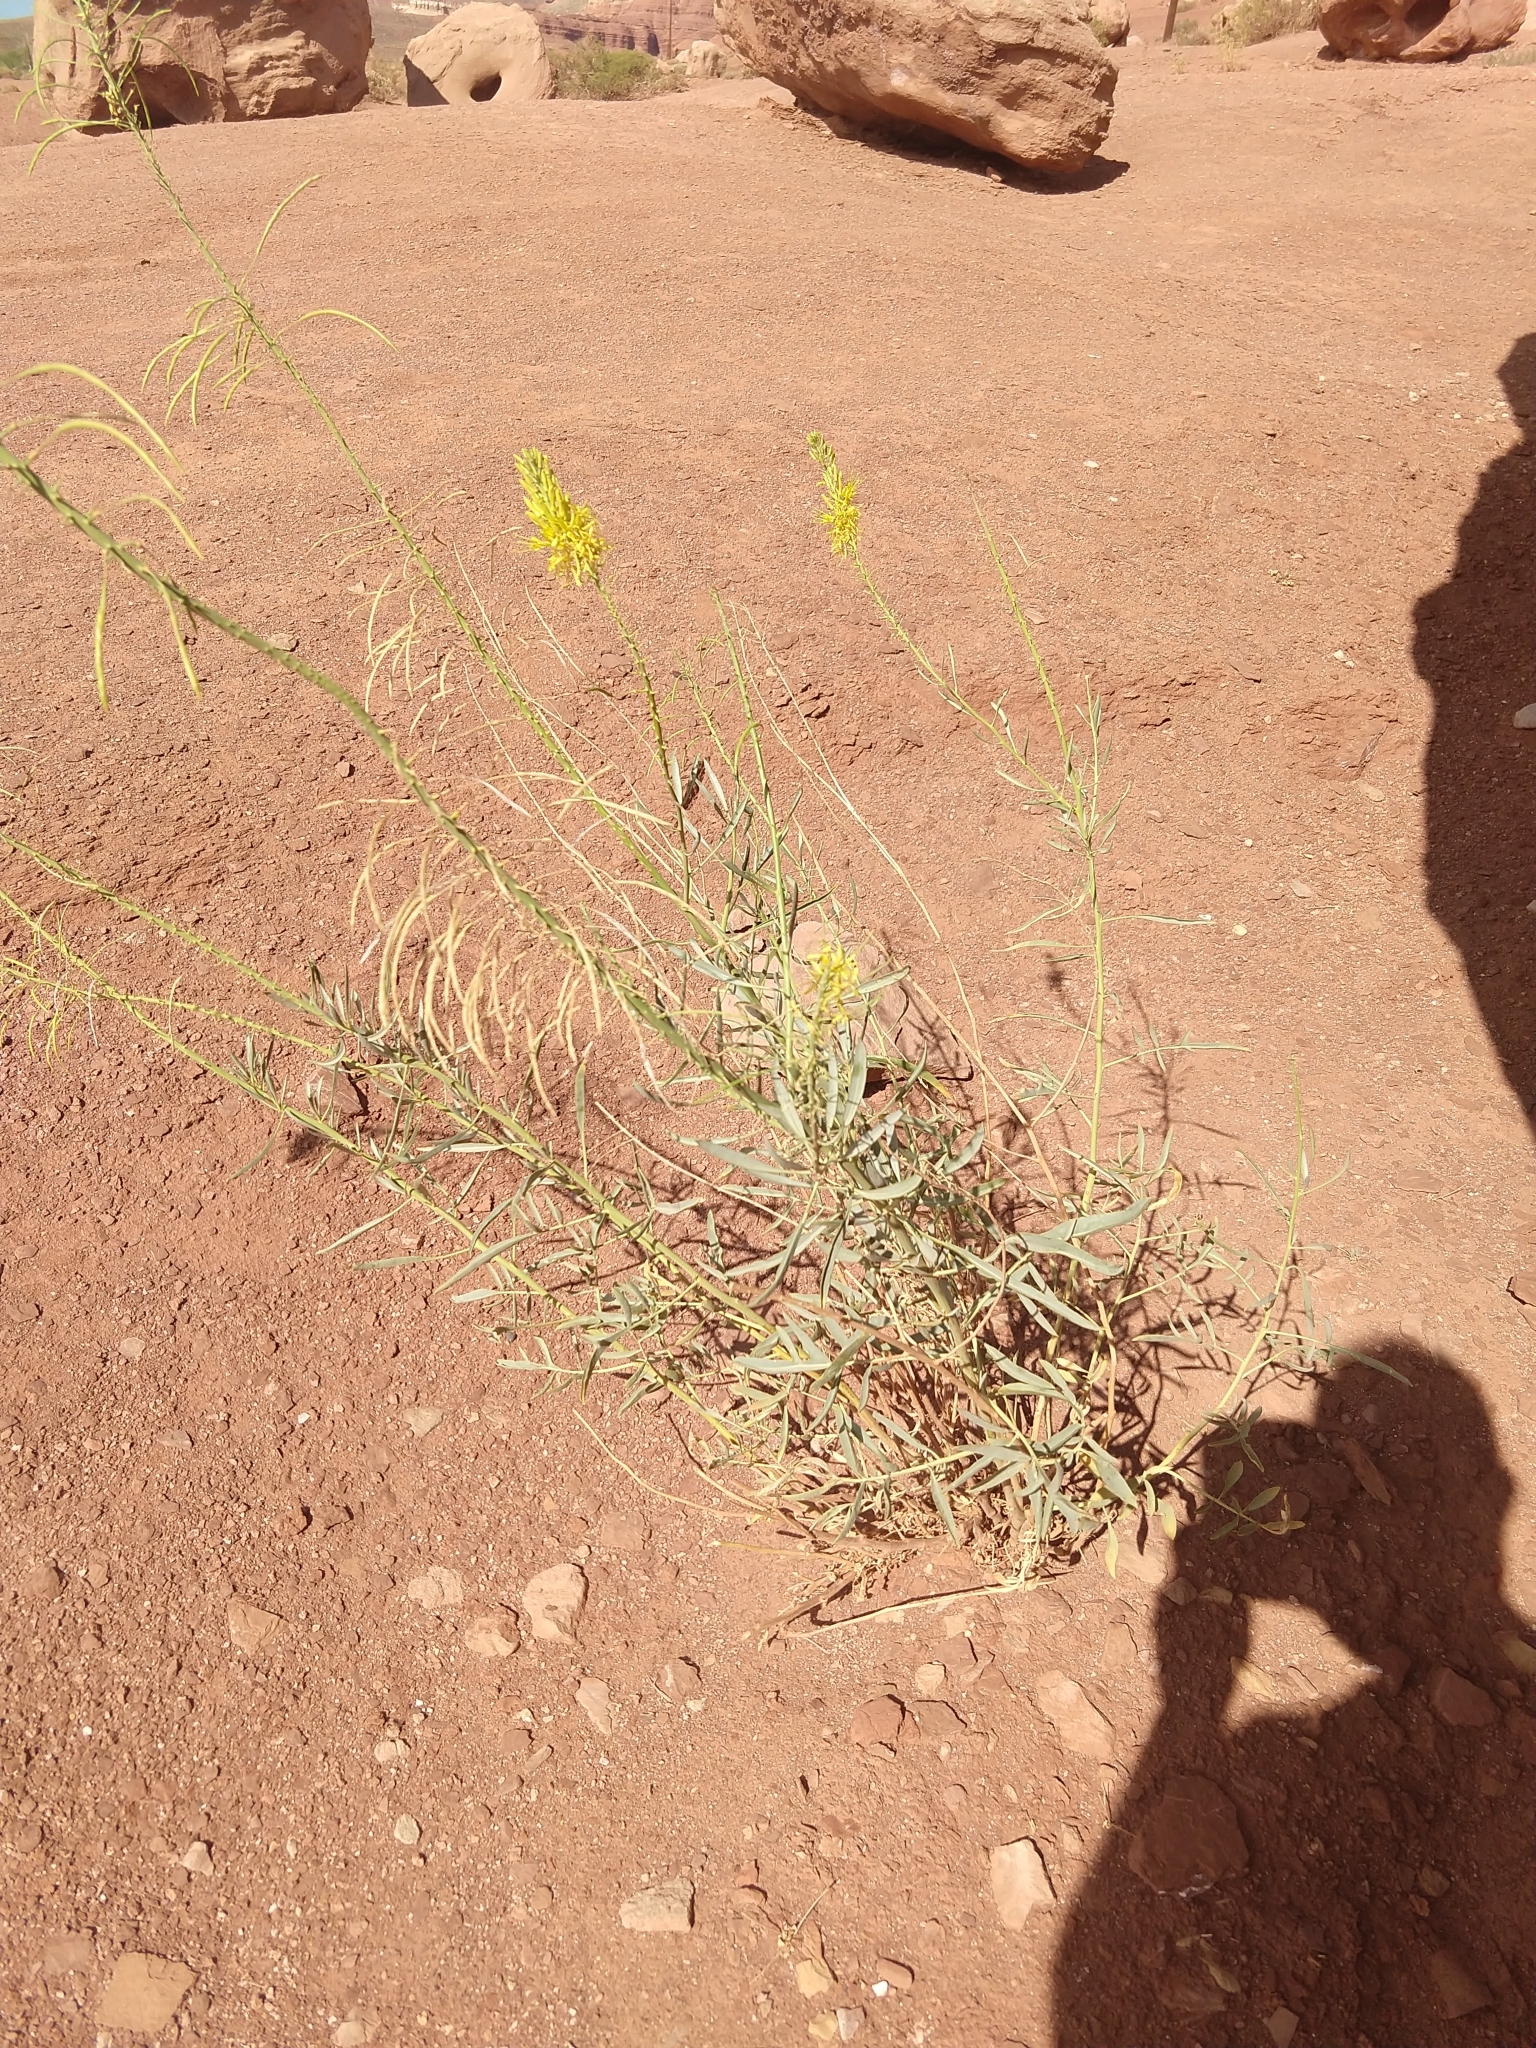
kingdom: Plantae
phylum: Tracheophyta
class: Magnoliopsida
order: Brassicales
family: Brassicaceae
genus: Stanleya
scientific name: Stanleya pinnata
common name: Prince's-plume
